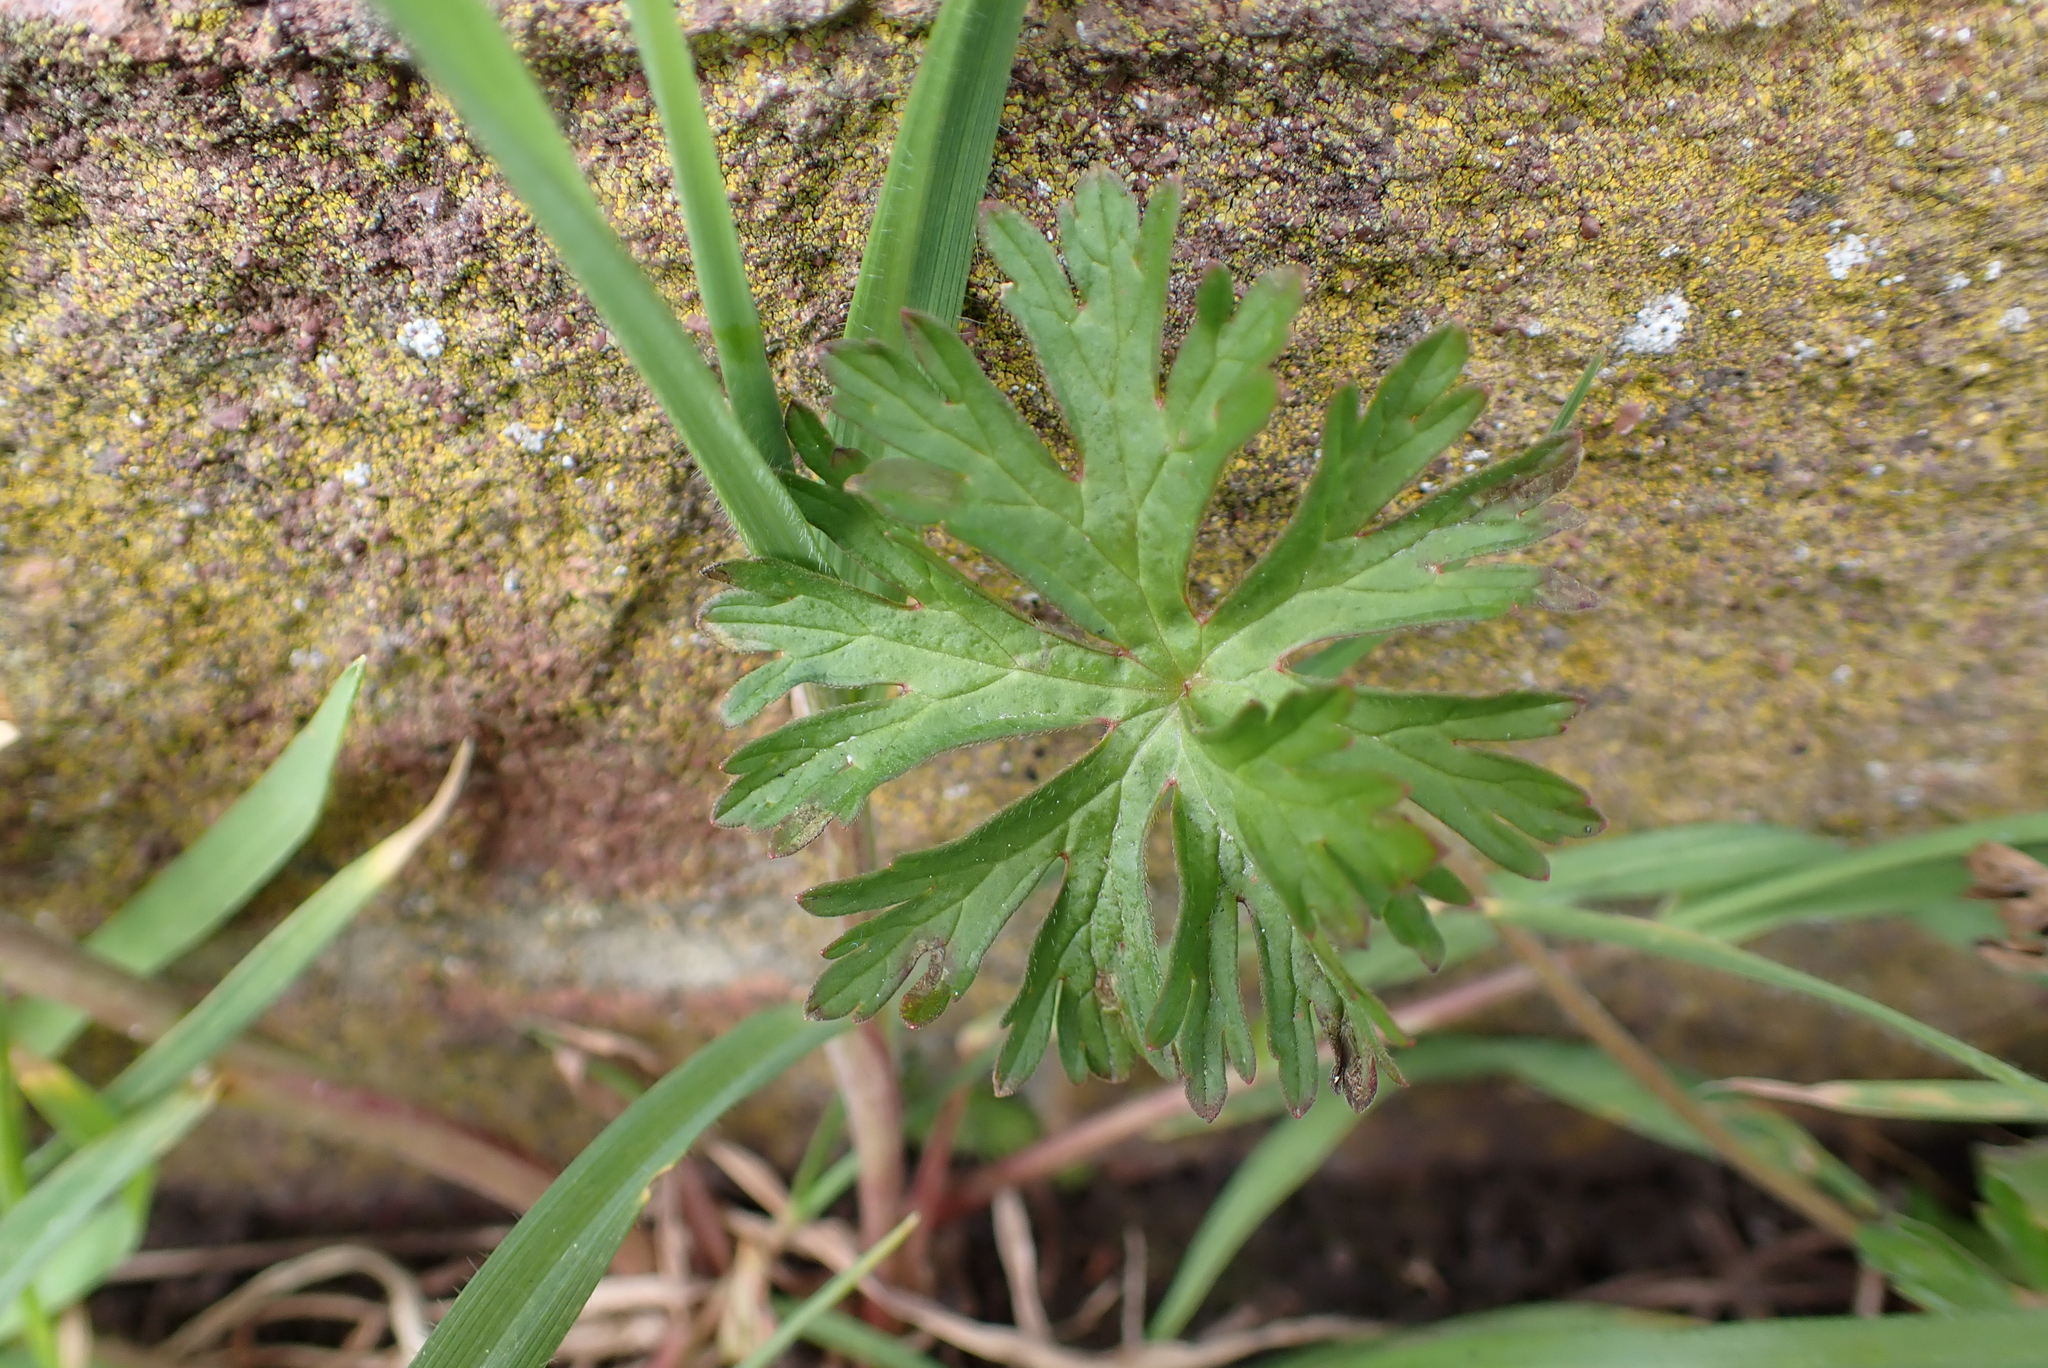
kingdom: Plantae
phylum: Tracheophyta
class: Magnoliopsida
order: Geraniales
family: Geraniaceae
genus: Geranium
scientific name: Geranium dissectum
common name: Cut-leaved crane's-bill
